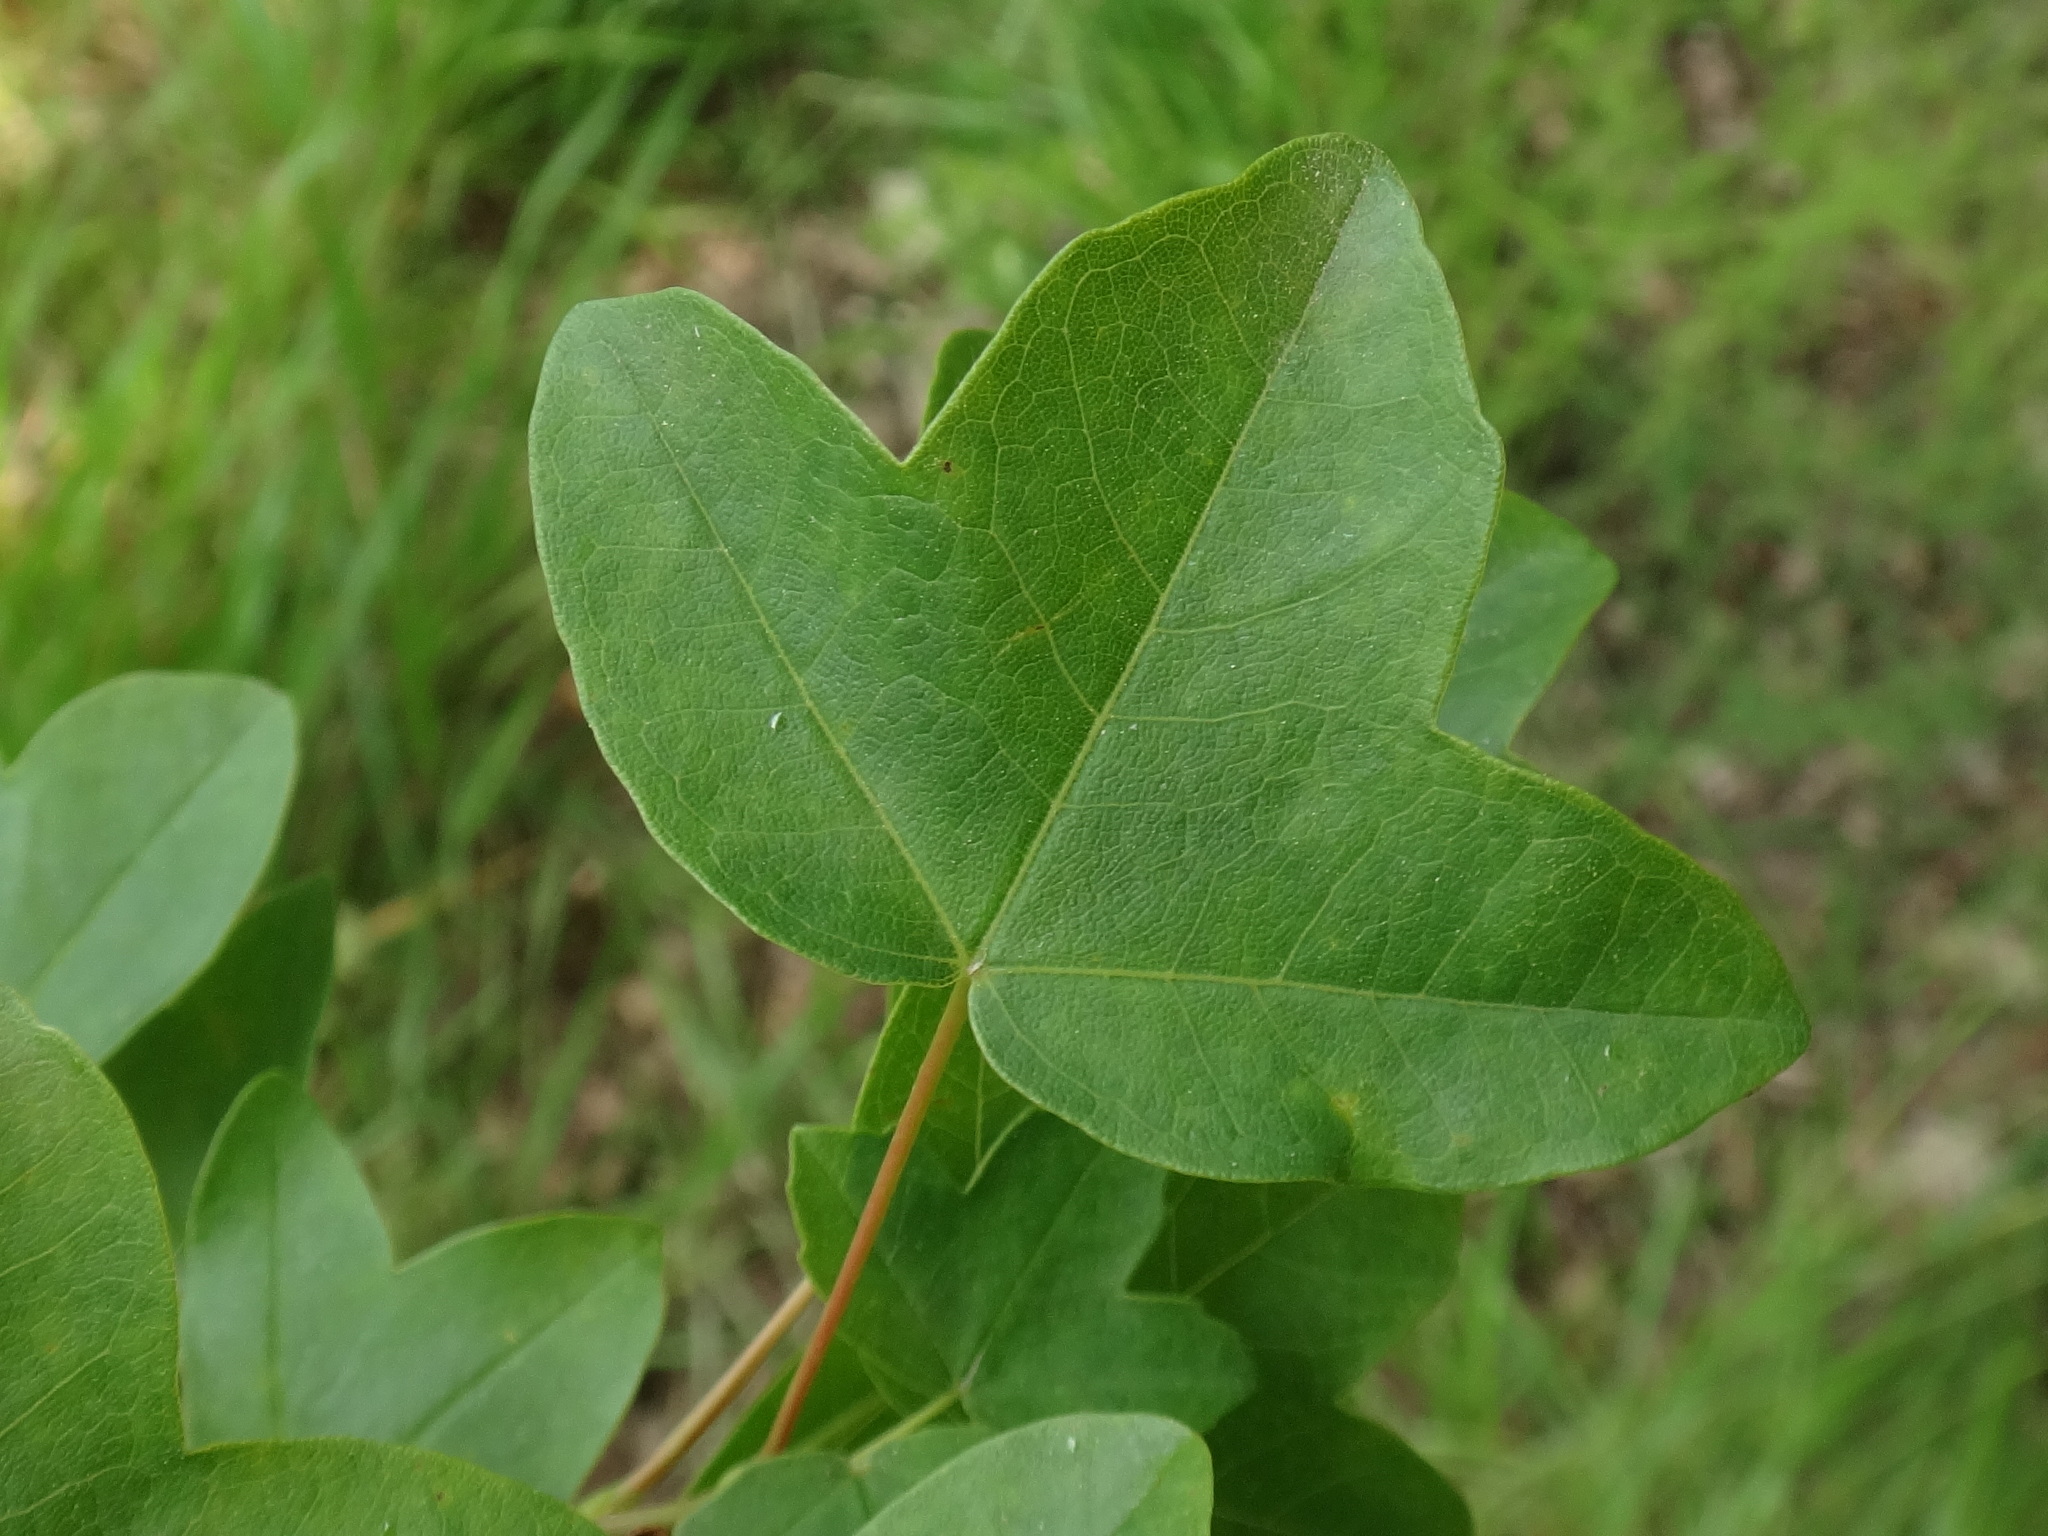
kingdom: Plantae
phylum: Tracheophyta
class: Magnoliopsida
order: Sapindales
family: Sapindaceae
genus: Acer
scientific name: Acer monspessulanum
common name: Montpellier maple
